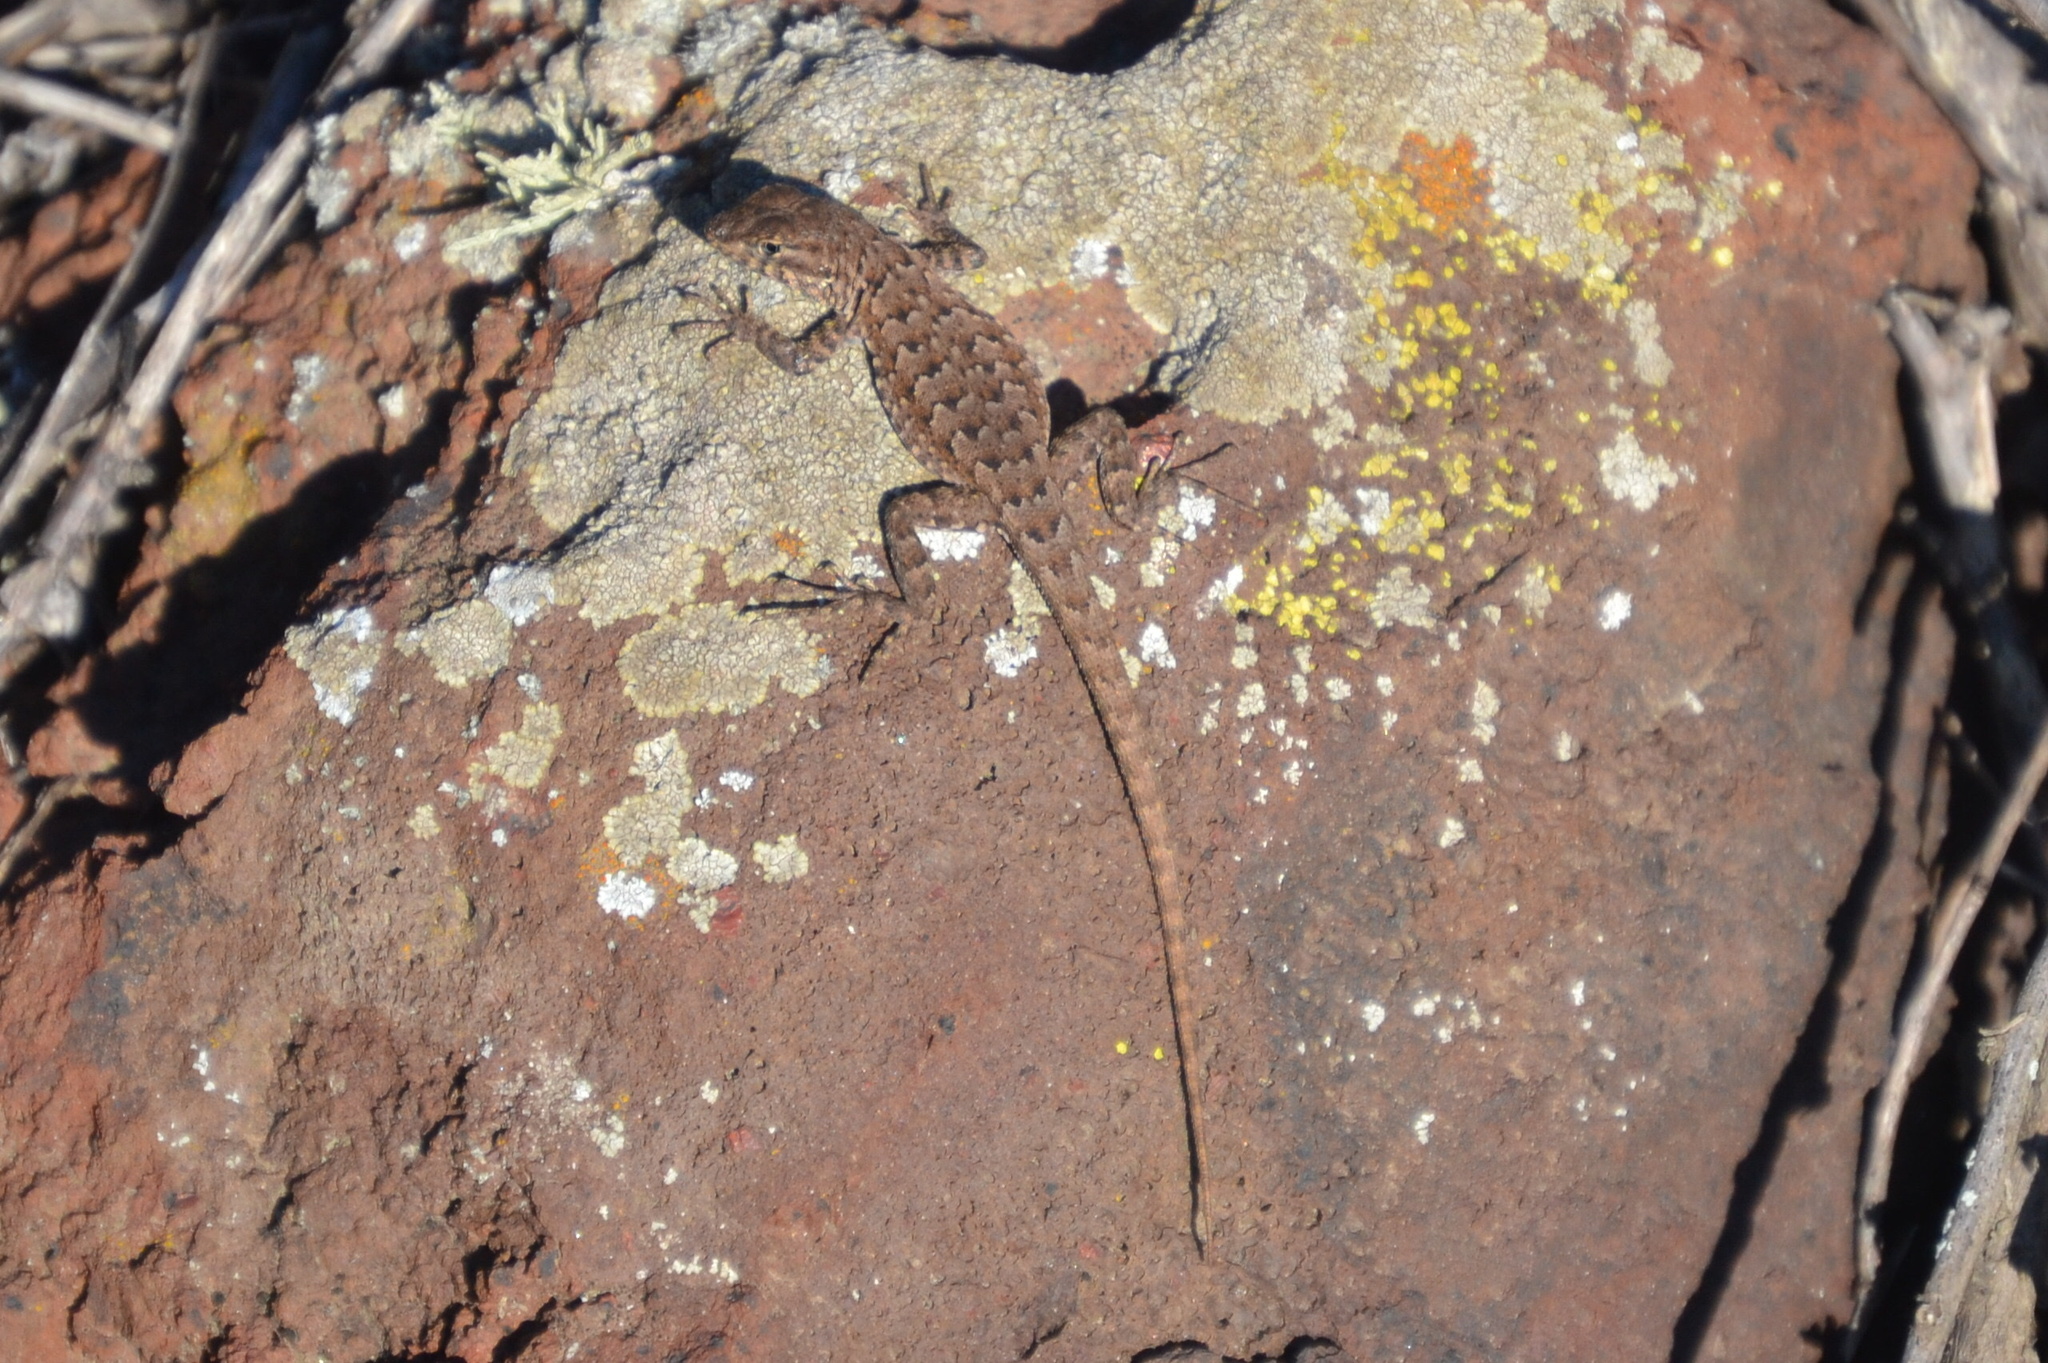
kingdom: Animalia
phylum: Chordata
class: Squamata
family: Phrynosomatidae
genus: Uta
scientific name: Uta stansburiana
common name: Side-blotched lizard
